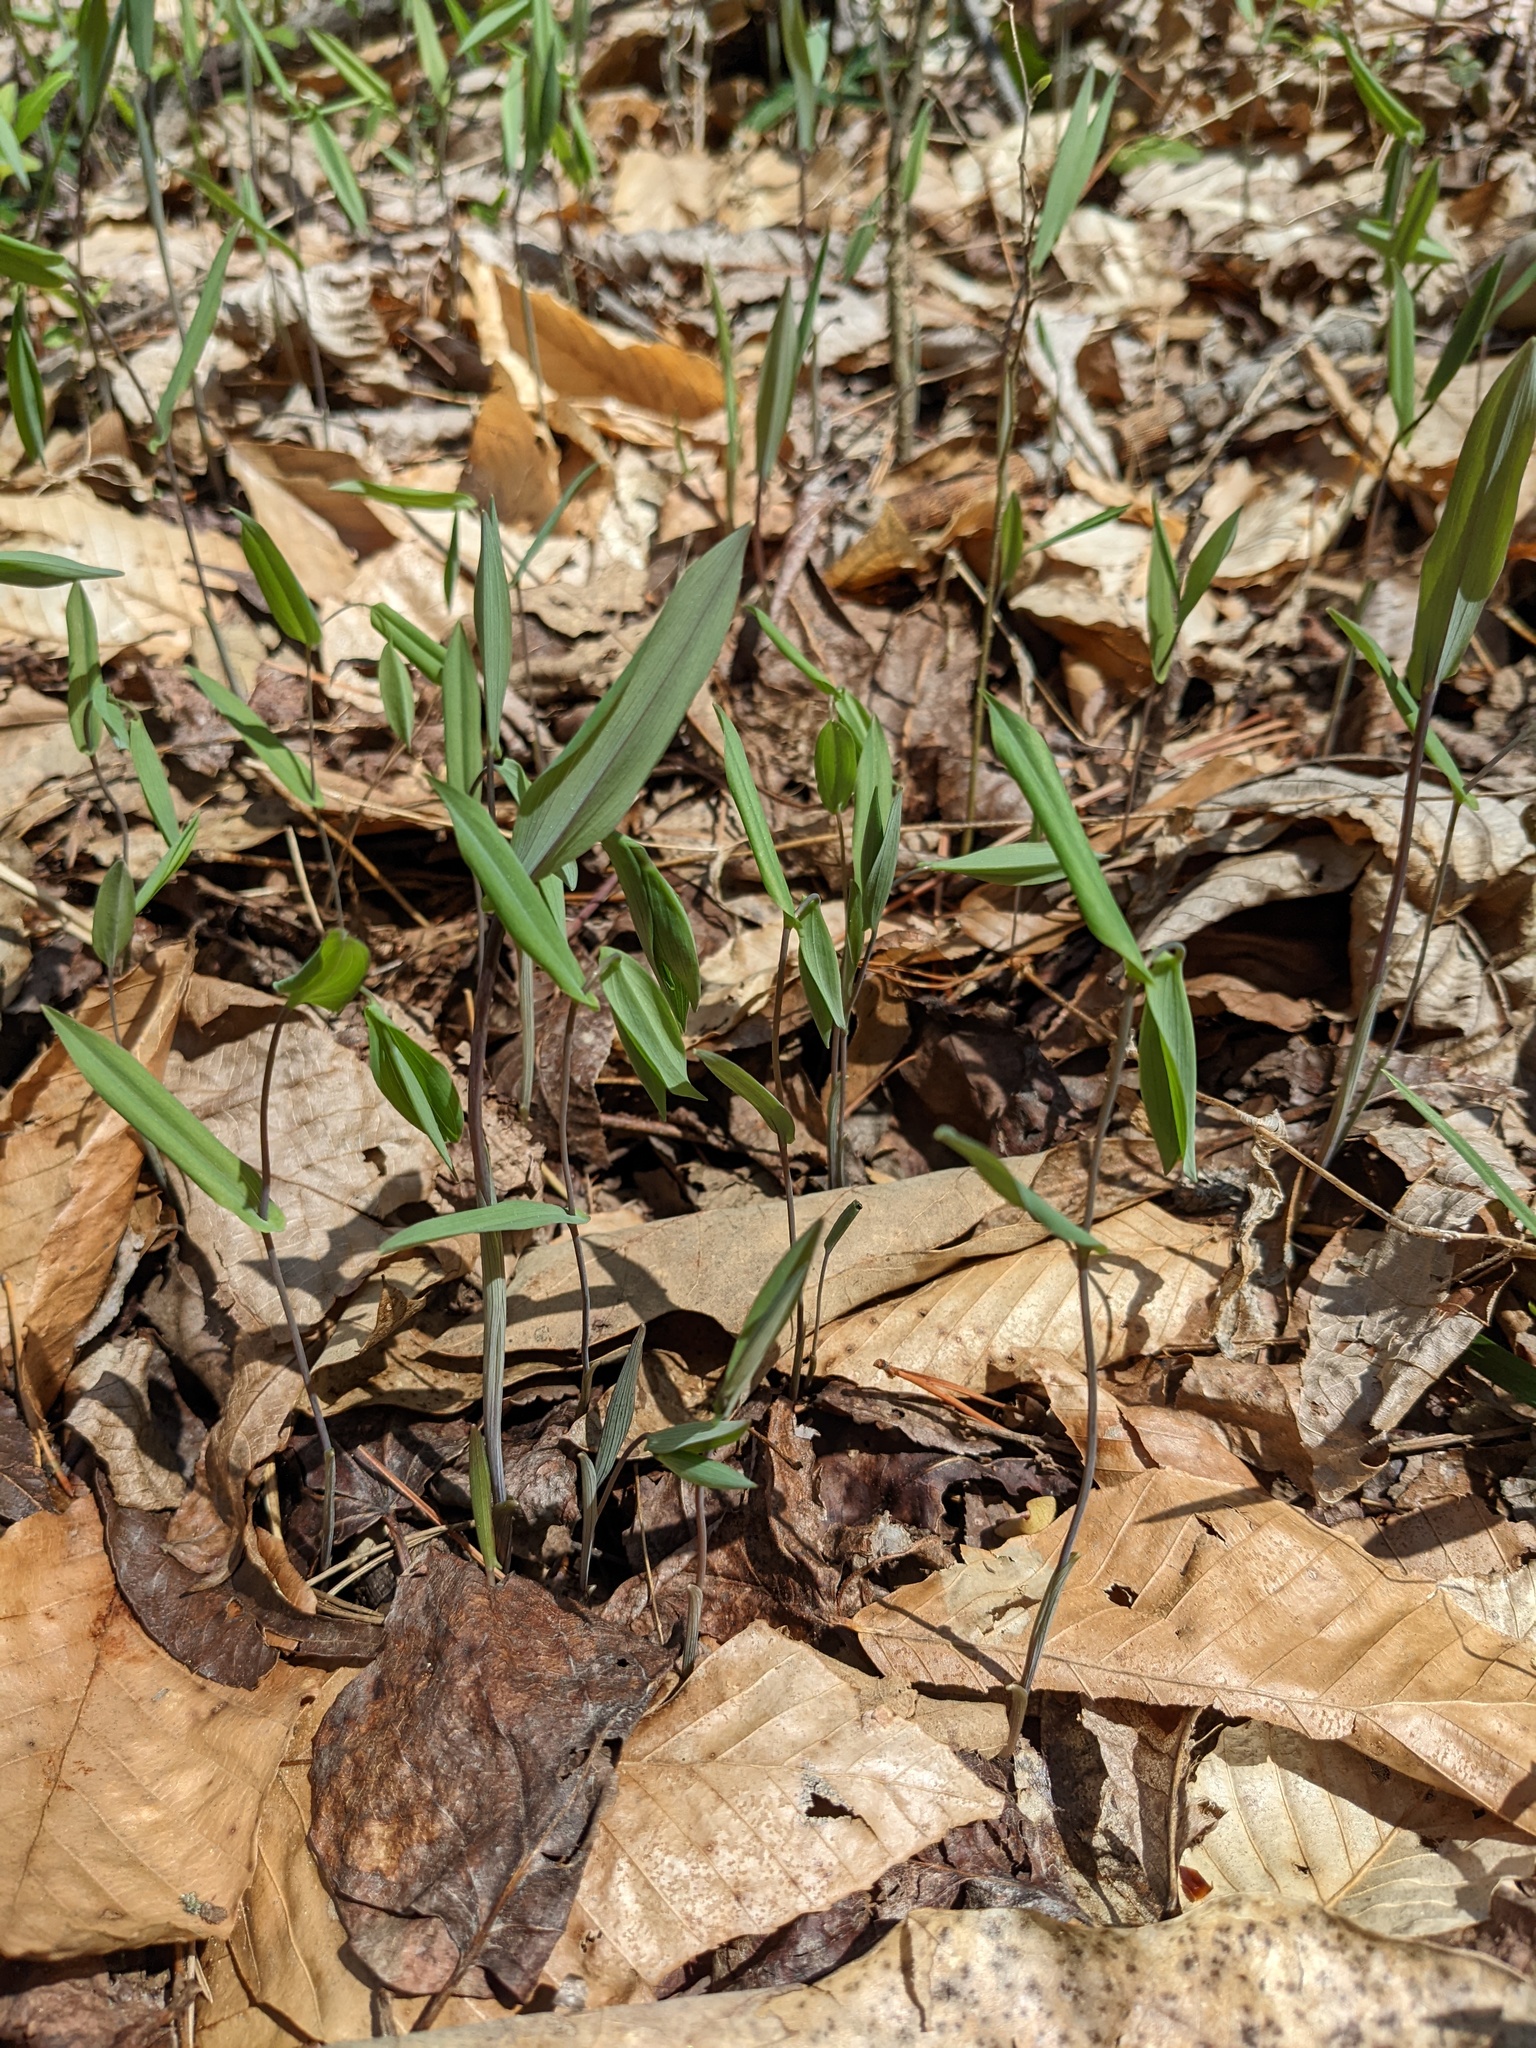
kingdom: Plantae
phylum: Tracheophyta
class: Liliopsida
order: Liliales
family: Colchicaceae
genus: Uvularia
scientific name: Uvularia perfoliata
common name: Perfoliate bellwort
